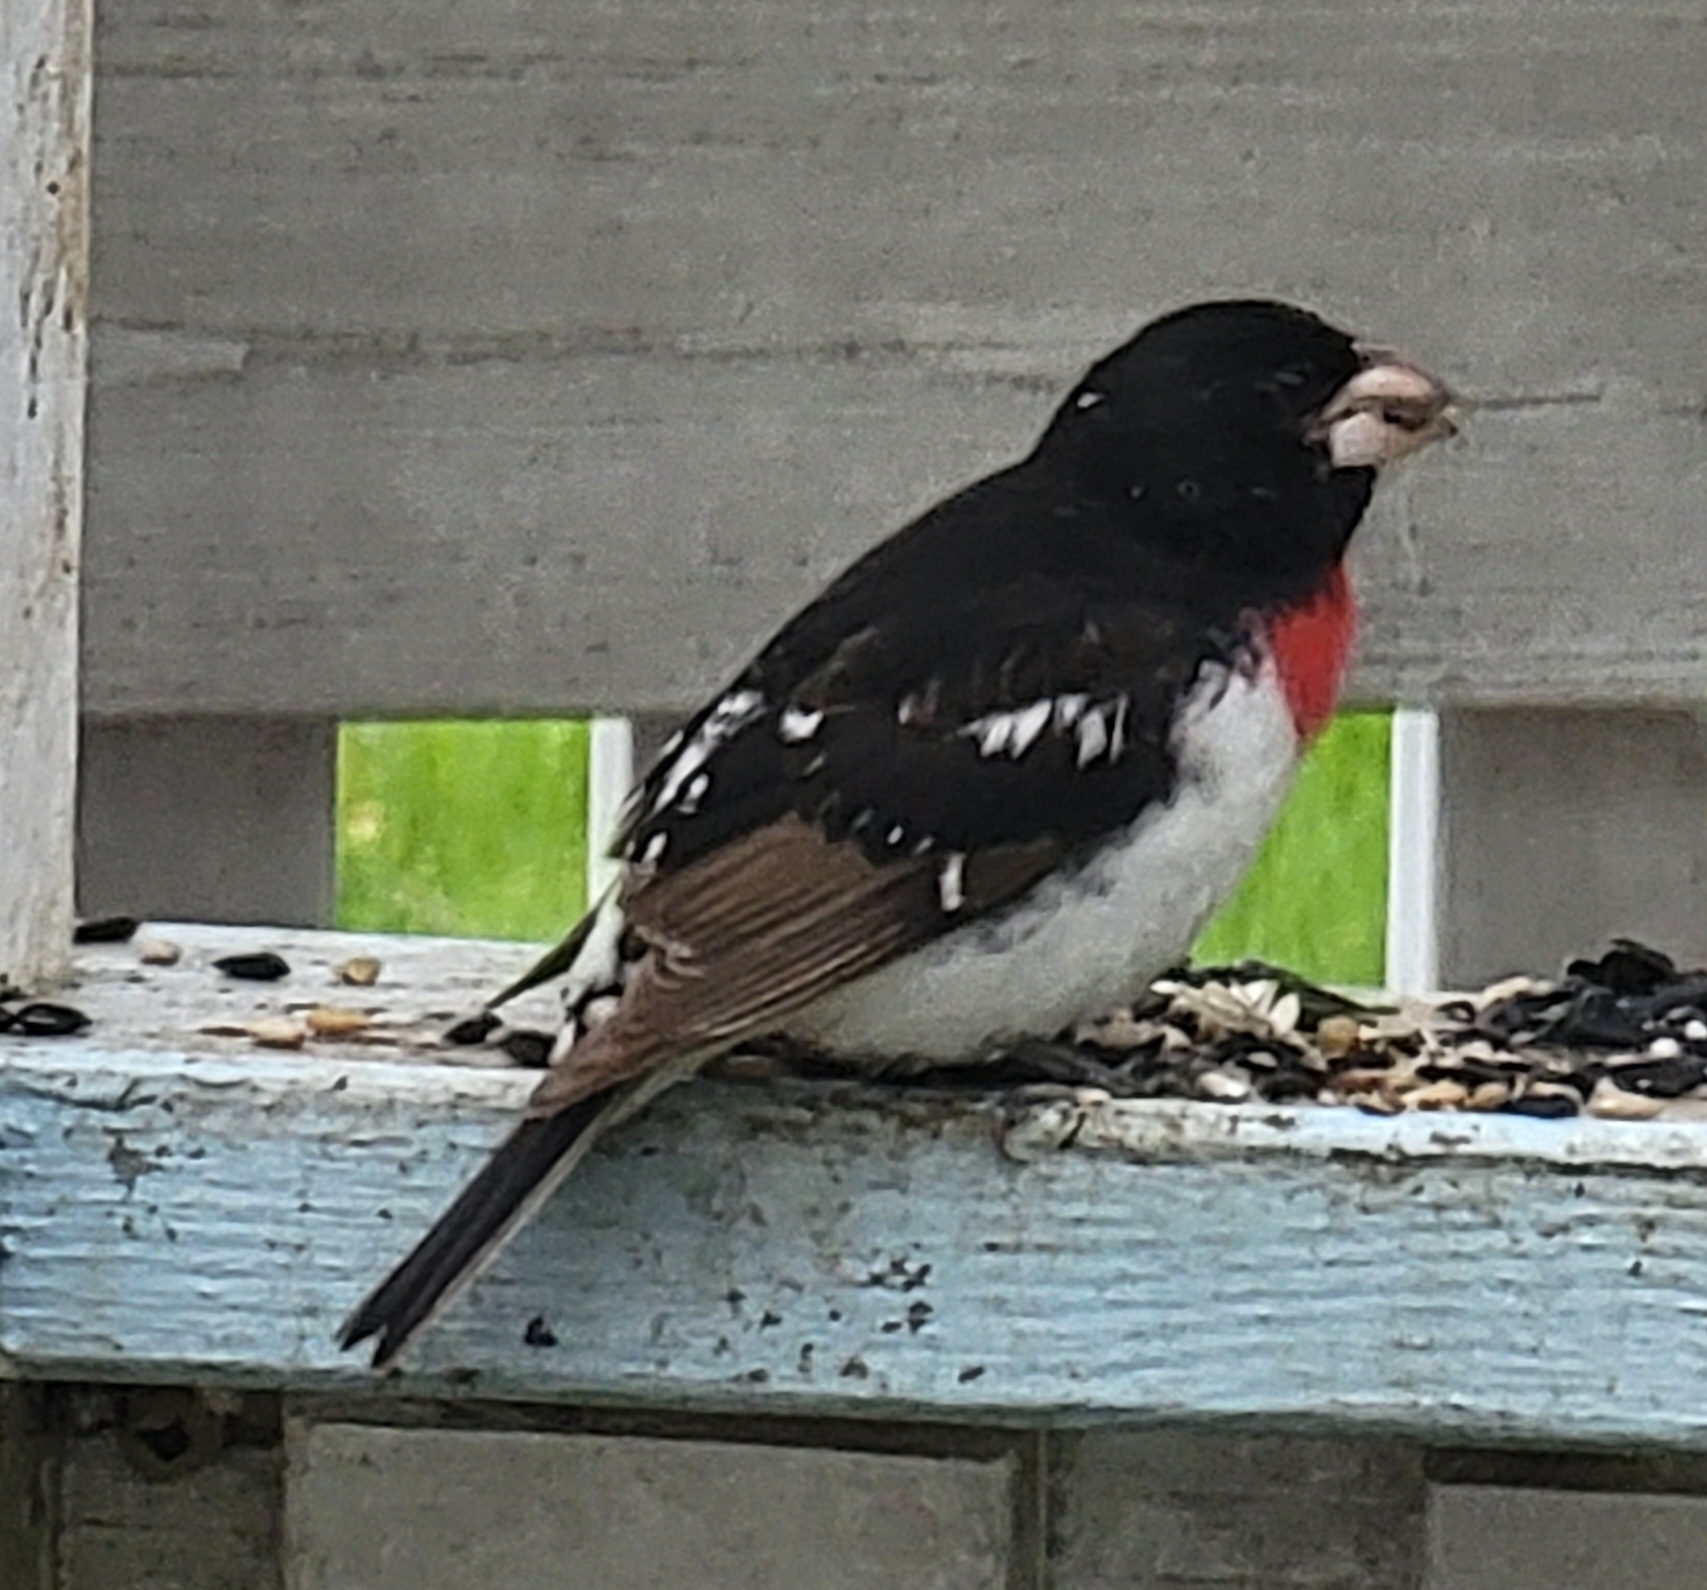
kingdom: Animalia
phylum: Chordata
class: Aves
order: Passeriformes
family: Cardinalidae
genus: Pheucticus
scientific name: Pheucticus ludovicianus
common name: Rose-breasted grosbeak
